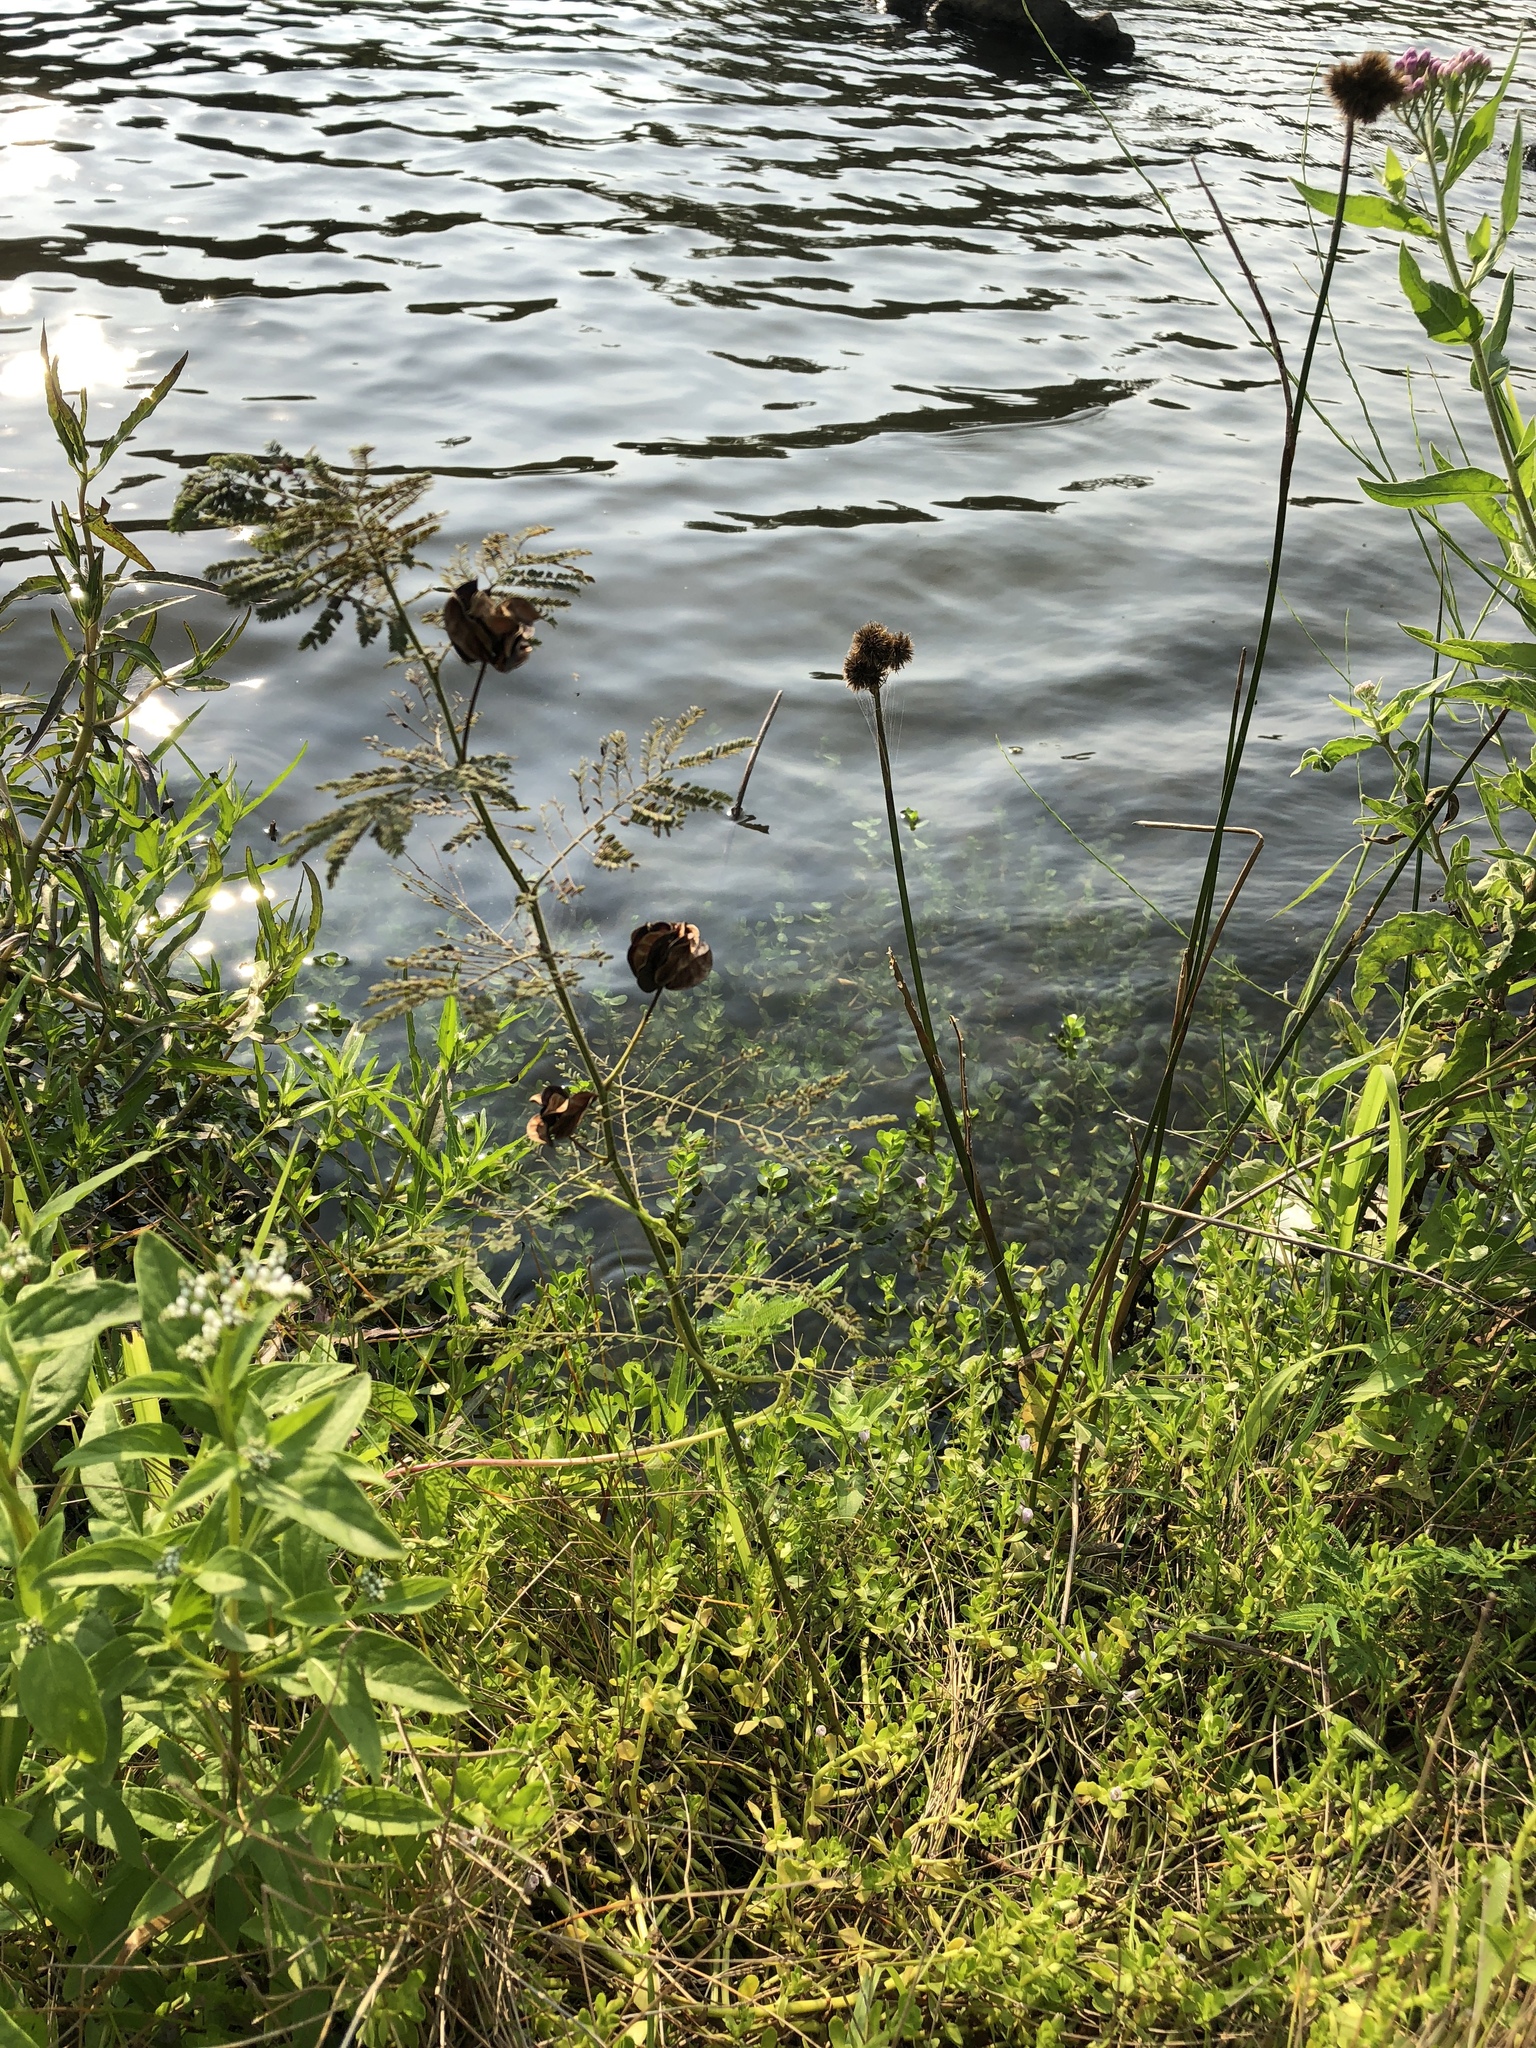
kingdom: Plantae
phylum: Tracheophyta
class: Magnoliopsida
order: Fabales
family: Fabaceae
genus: Desmanthus
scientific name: Desmanthus illinoensis
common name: Illinois bundle-flower
